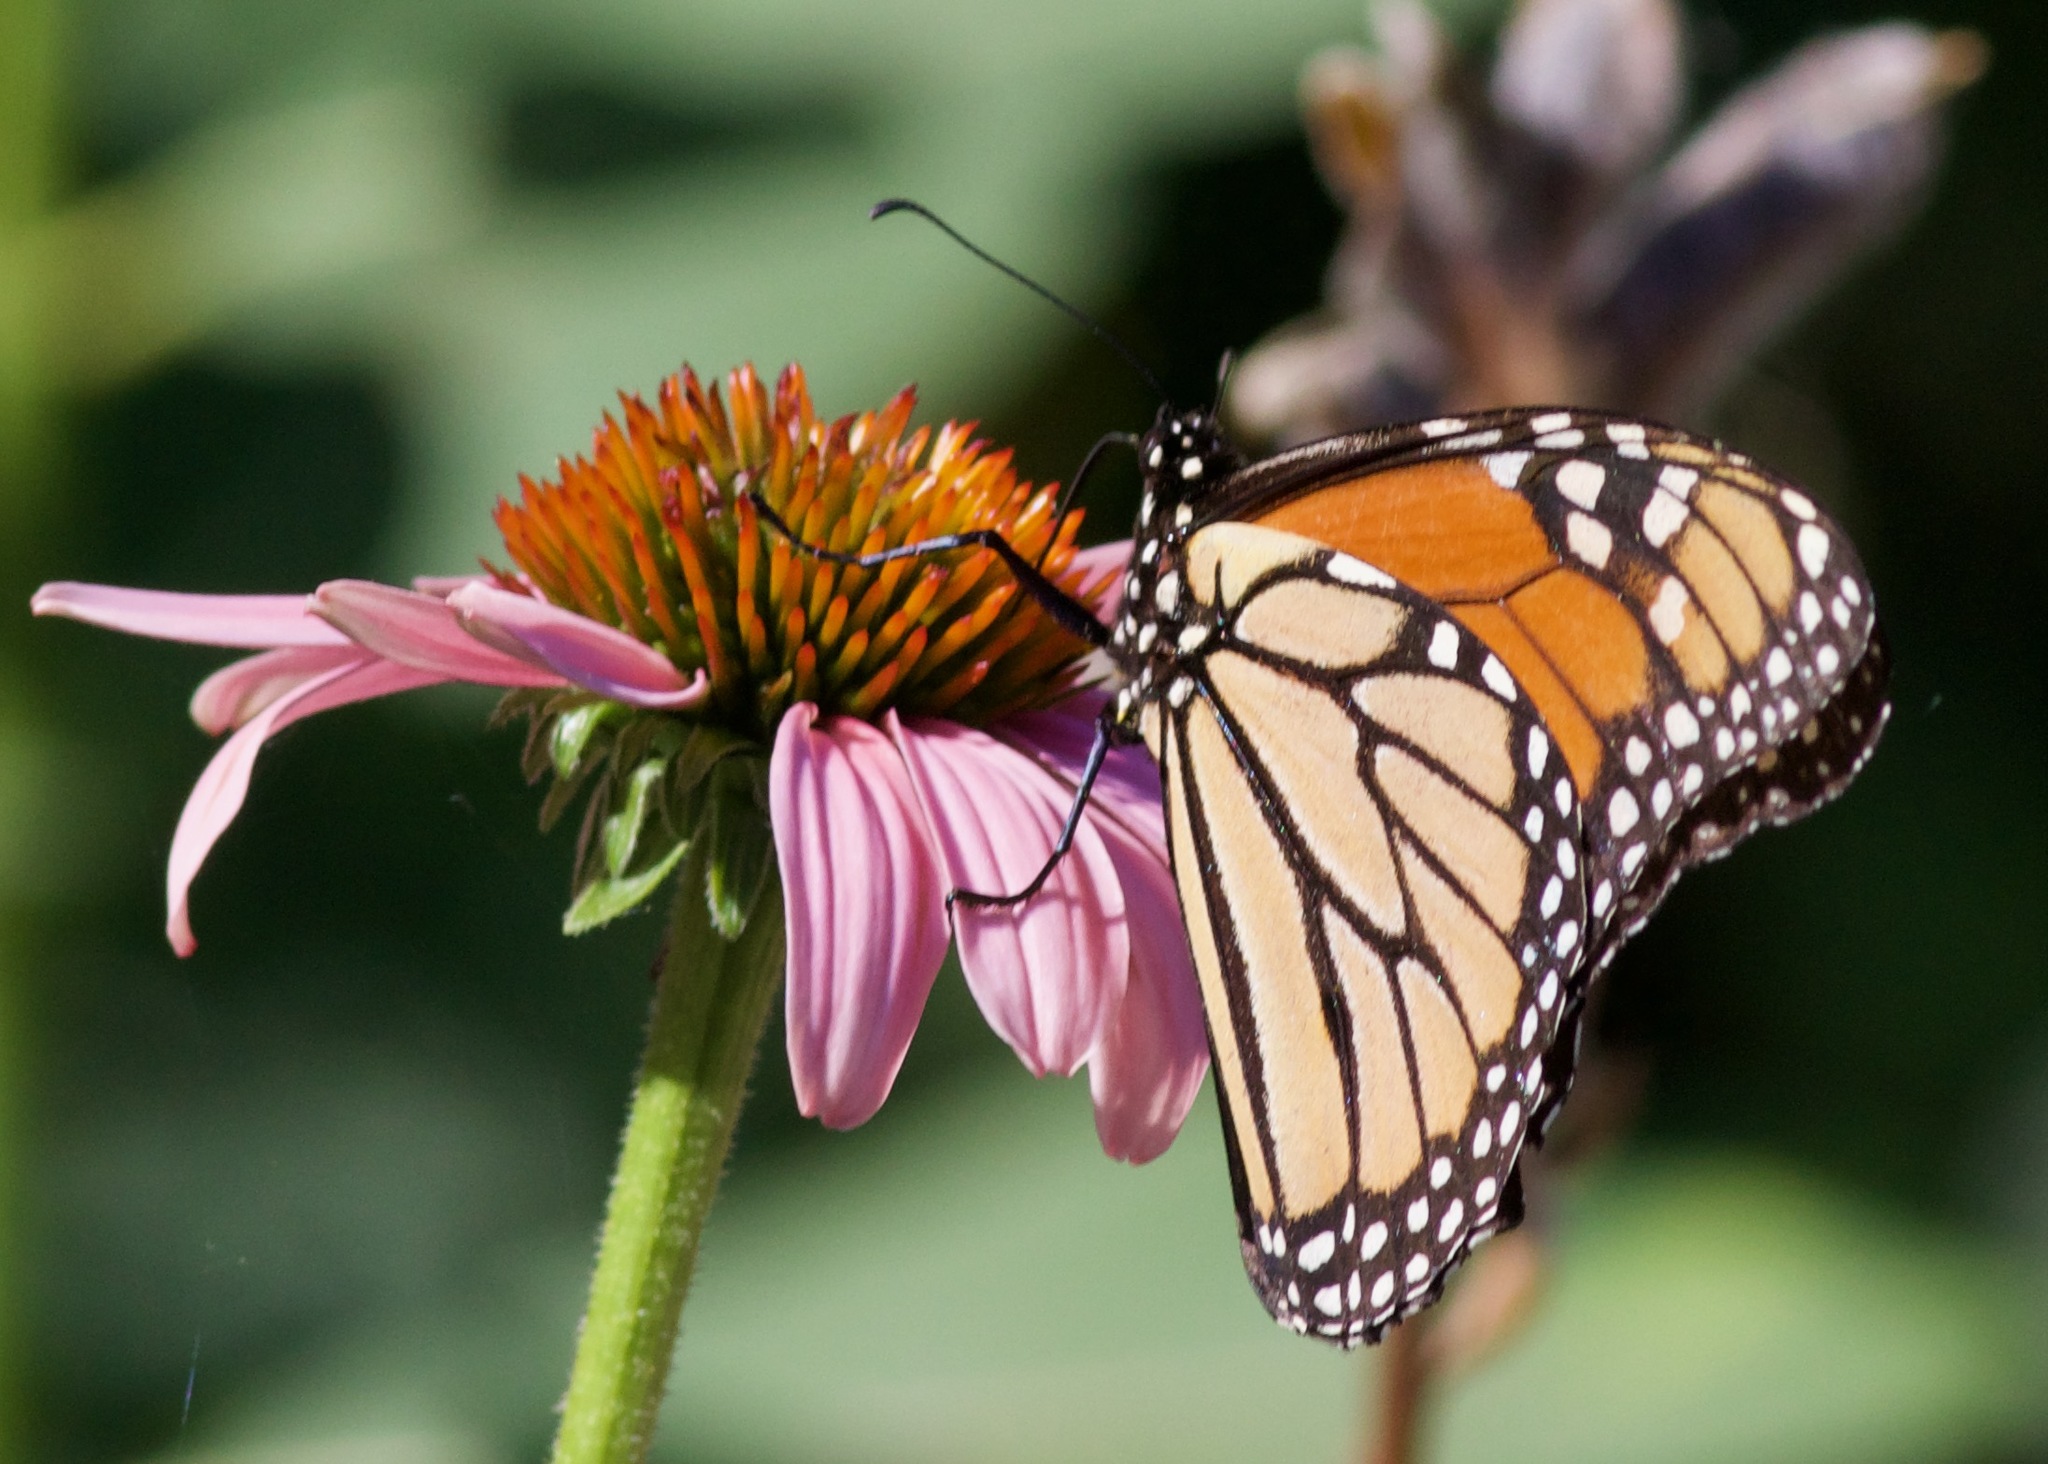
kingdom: Plantae
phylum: Tracheophyta
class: Magnoliopsida
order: Asterales
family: Asteraceae
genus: Echinacea
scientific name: Echinacea purpurea
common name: Broad-leaved purple coneflower
